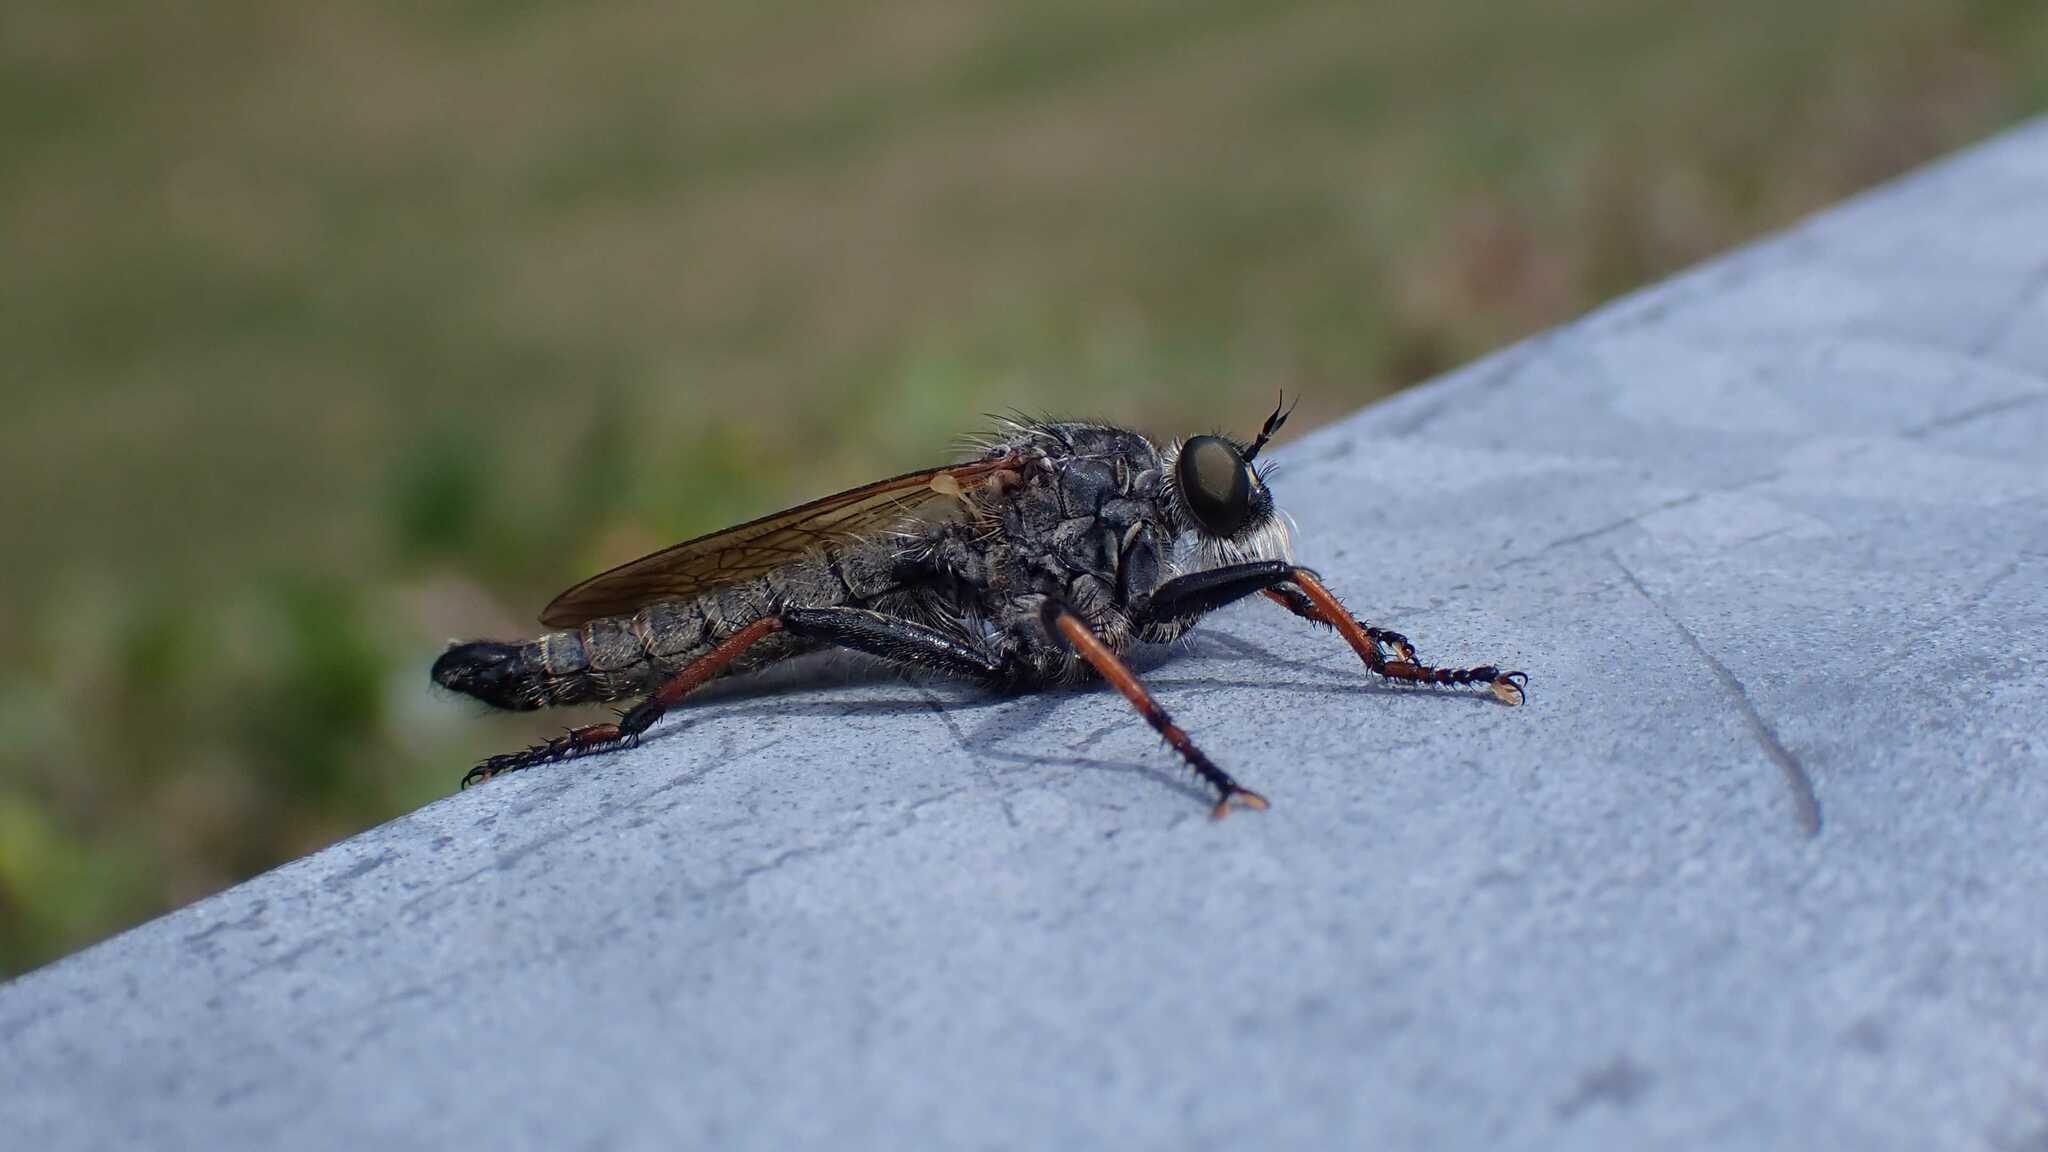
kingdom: Animalia
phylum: Arthropoda
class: Insecta
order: Diptera
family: Asilidae
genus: Antipalus
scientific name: Antipalus varipes
